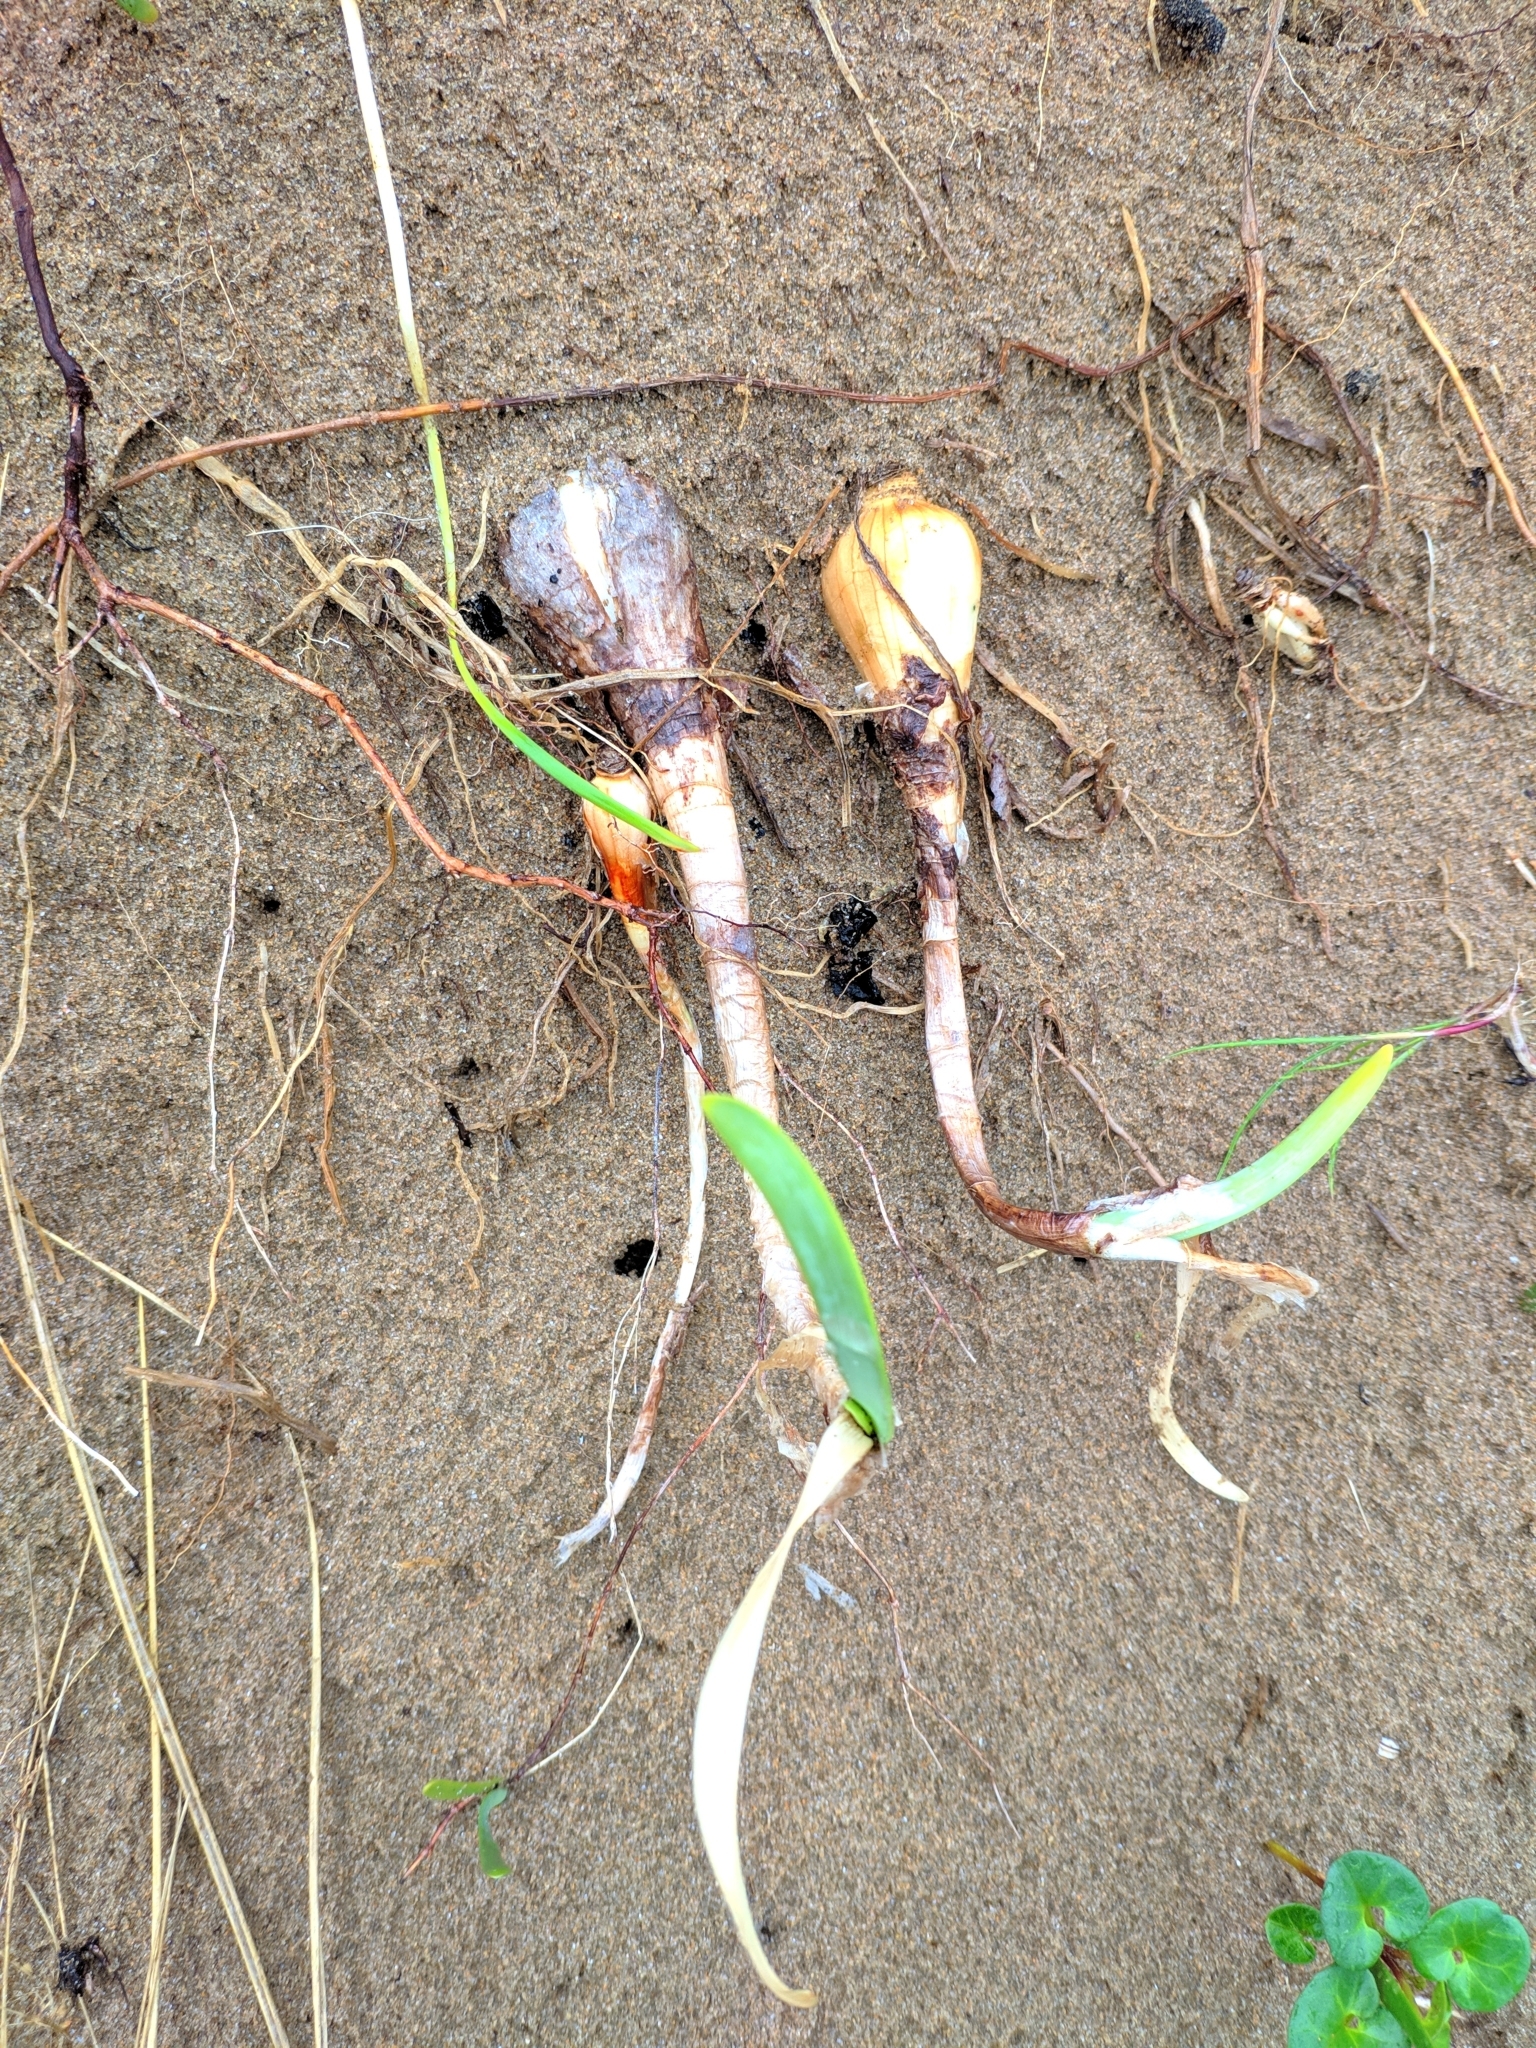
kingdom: Plantae
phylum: Tracheophyta
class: Liliopsida
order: Asparagales
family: Amaryllidaceae
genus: Pancratium
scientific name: Pancratium maritimum
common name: Sea-daffodil
